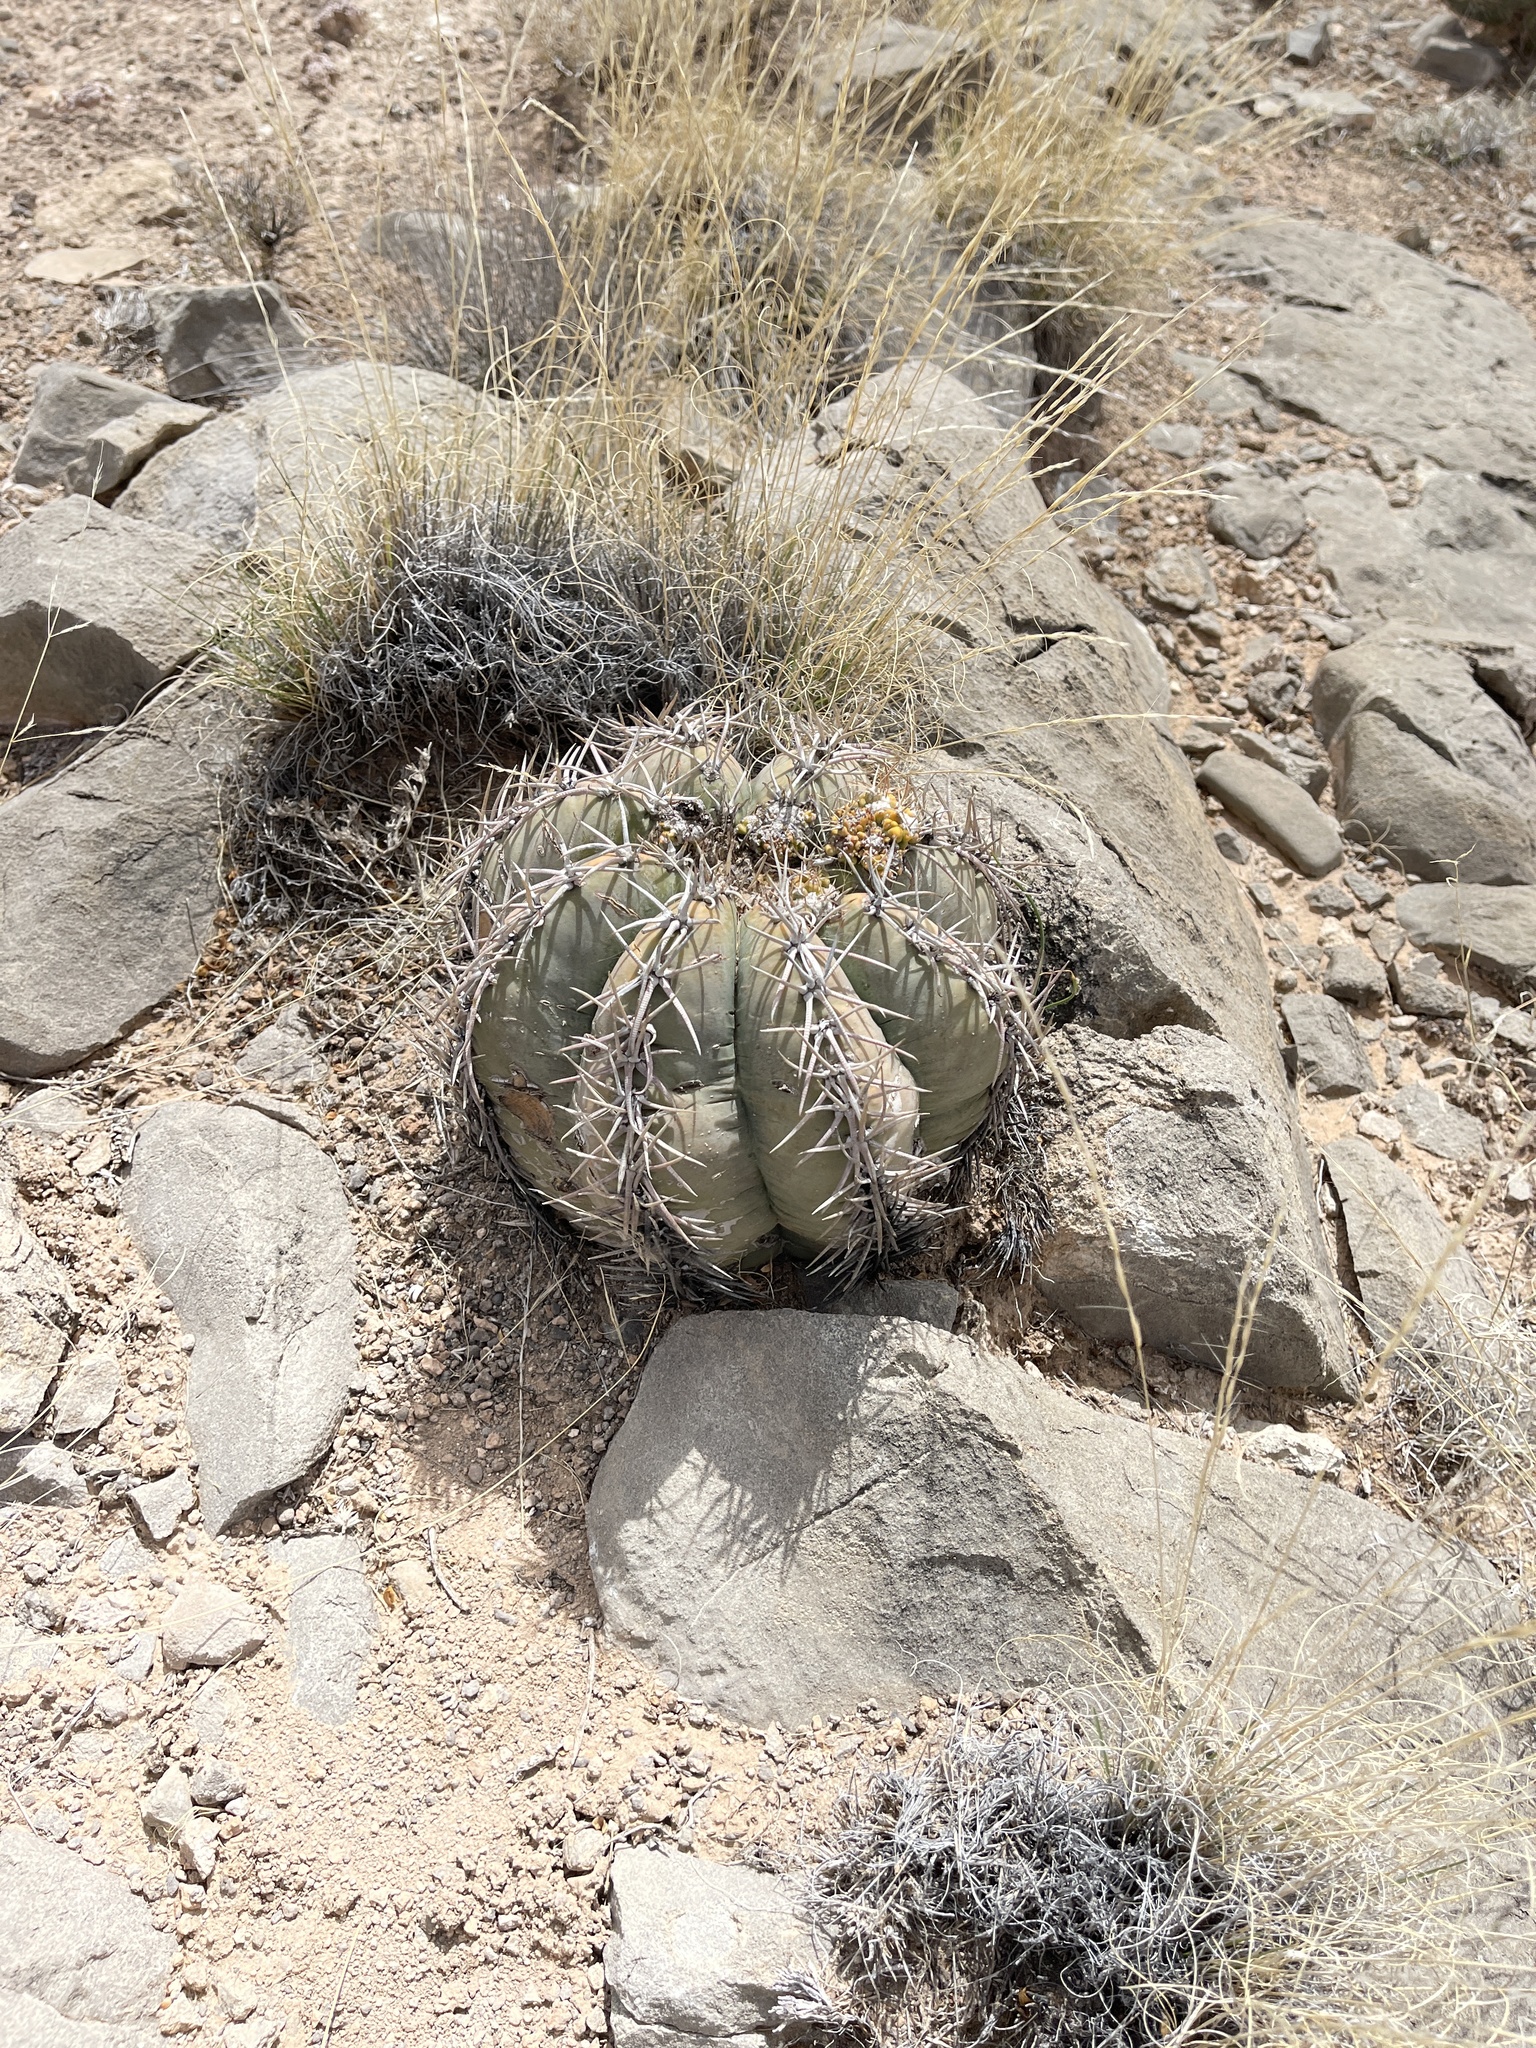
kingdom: Plantae
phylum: Tracheophyta
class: Magnoliopsida
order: Caryophyllales
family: Cactaceae
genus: Echinocactus
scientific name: Echinocactus horizonthalonius
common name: Devilshead
